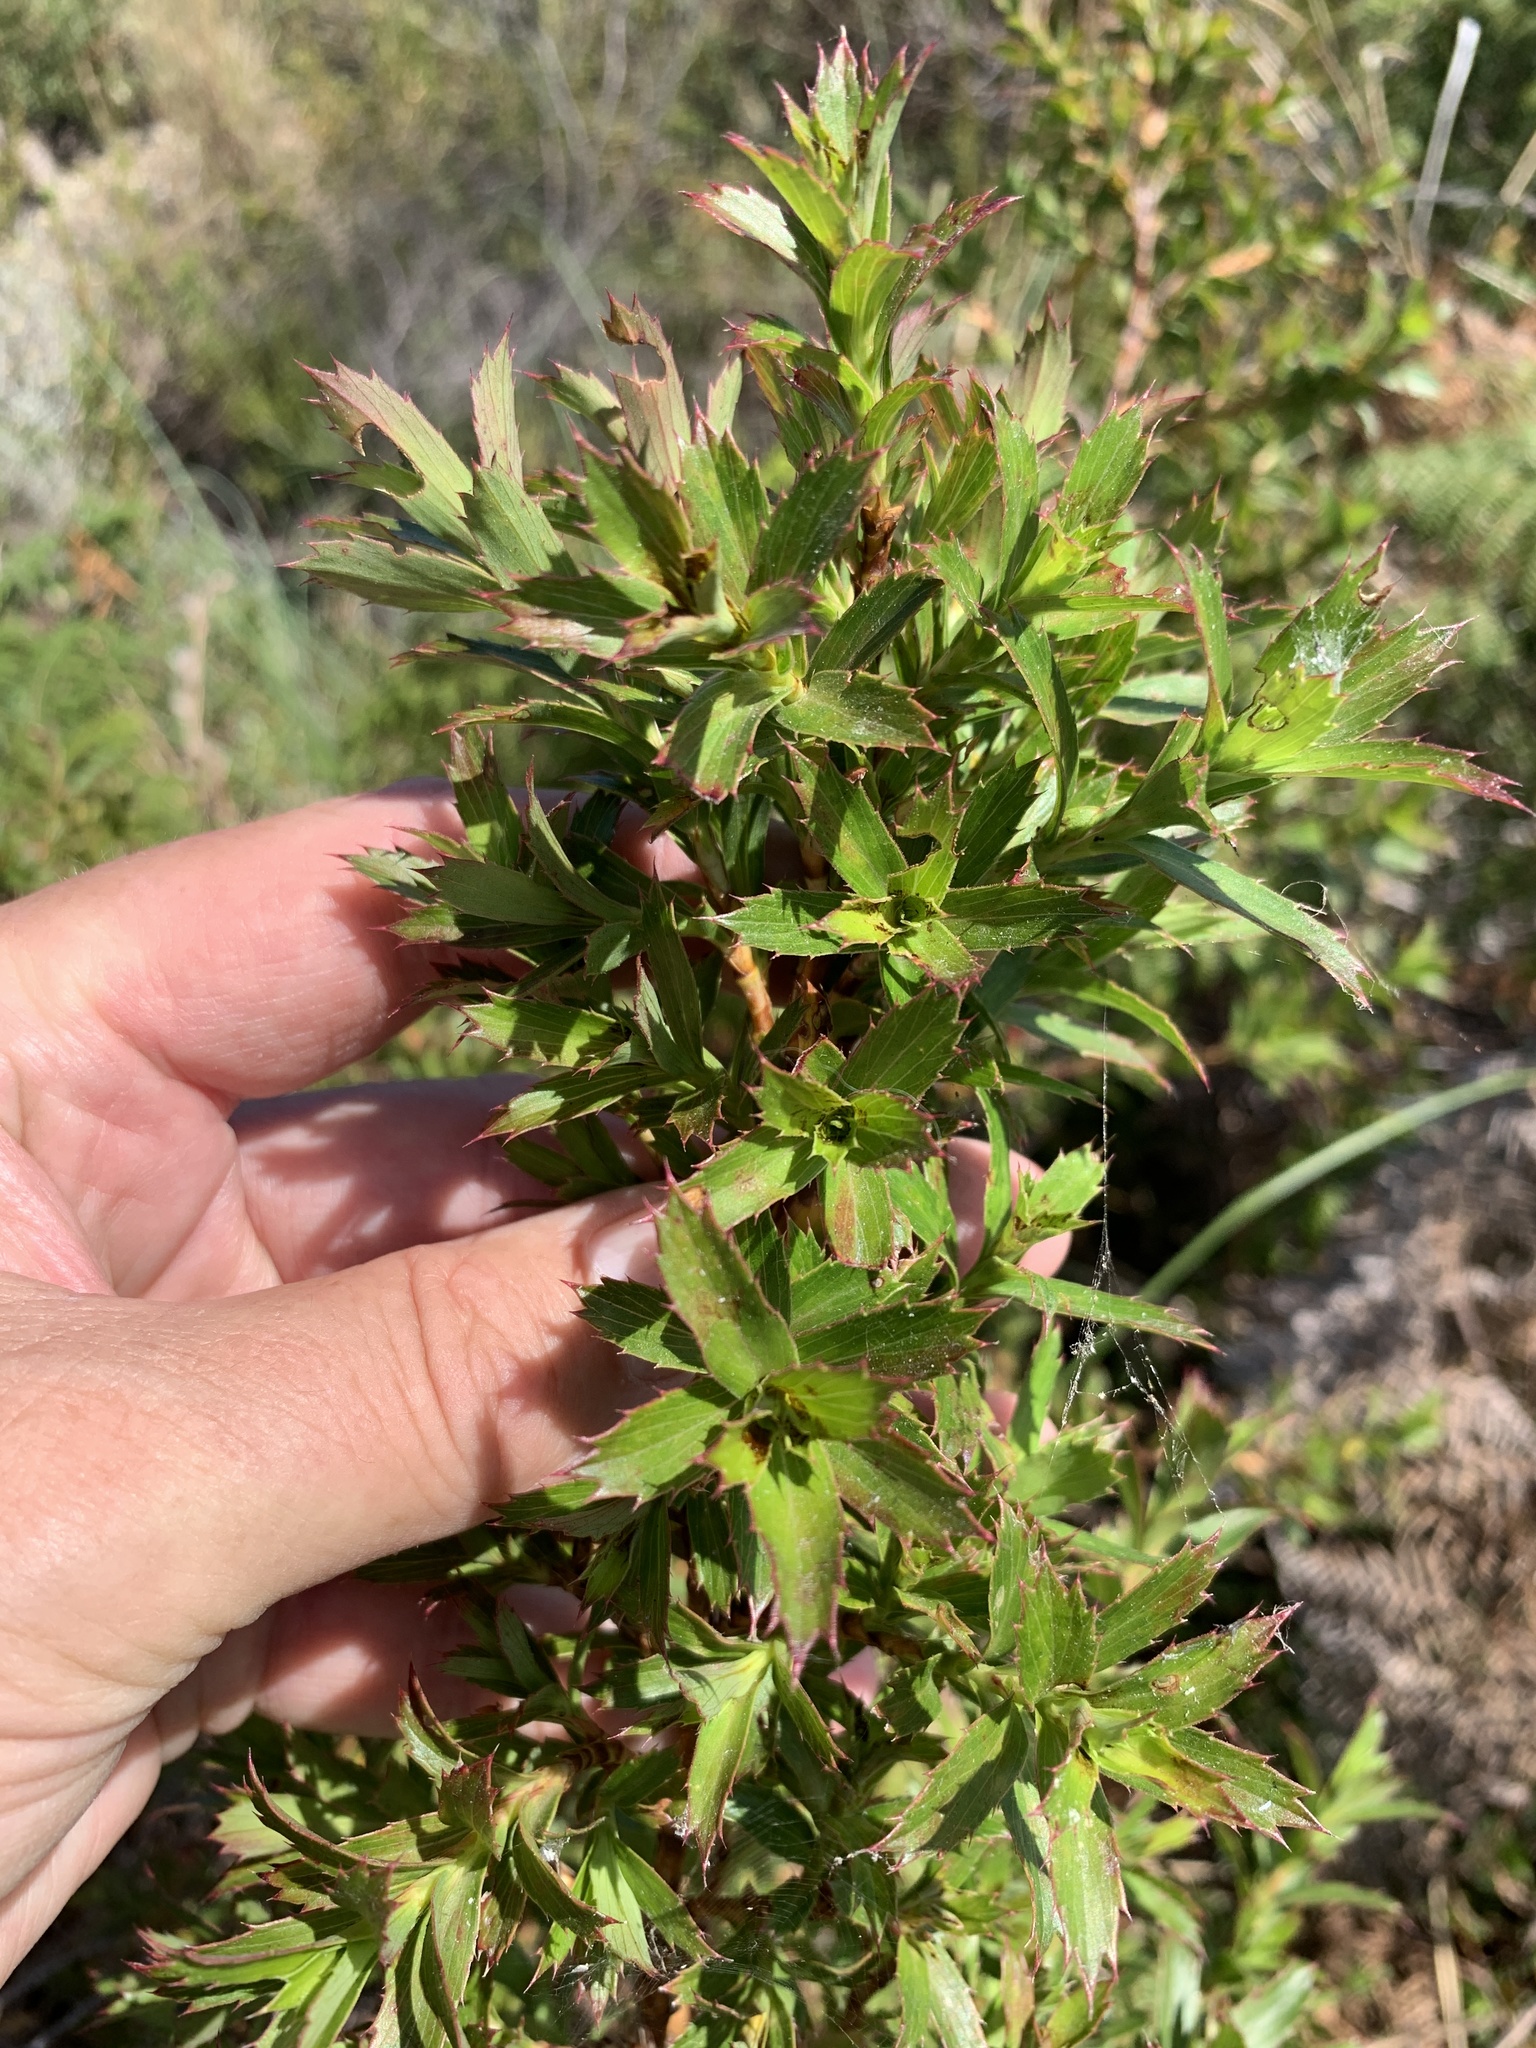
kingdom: Plantae
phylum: Tracheophyta
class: Magnoliopsida
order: Rosales
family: Rosaceae
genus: Cliffortia
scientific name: Cliffortia prionota
